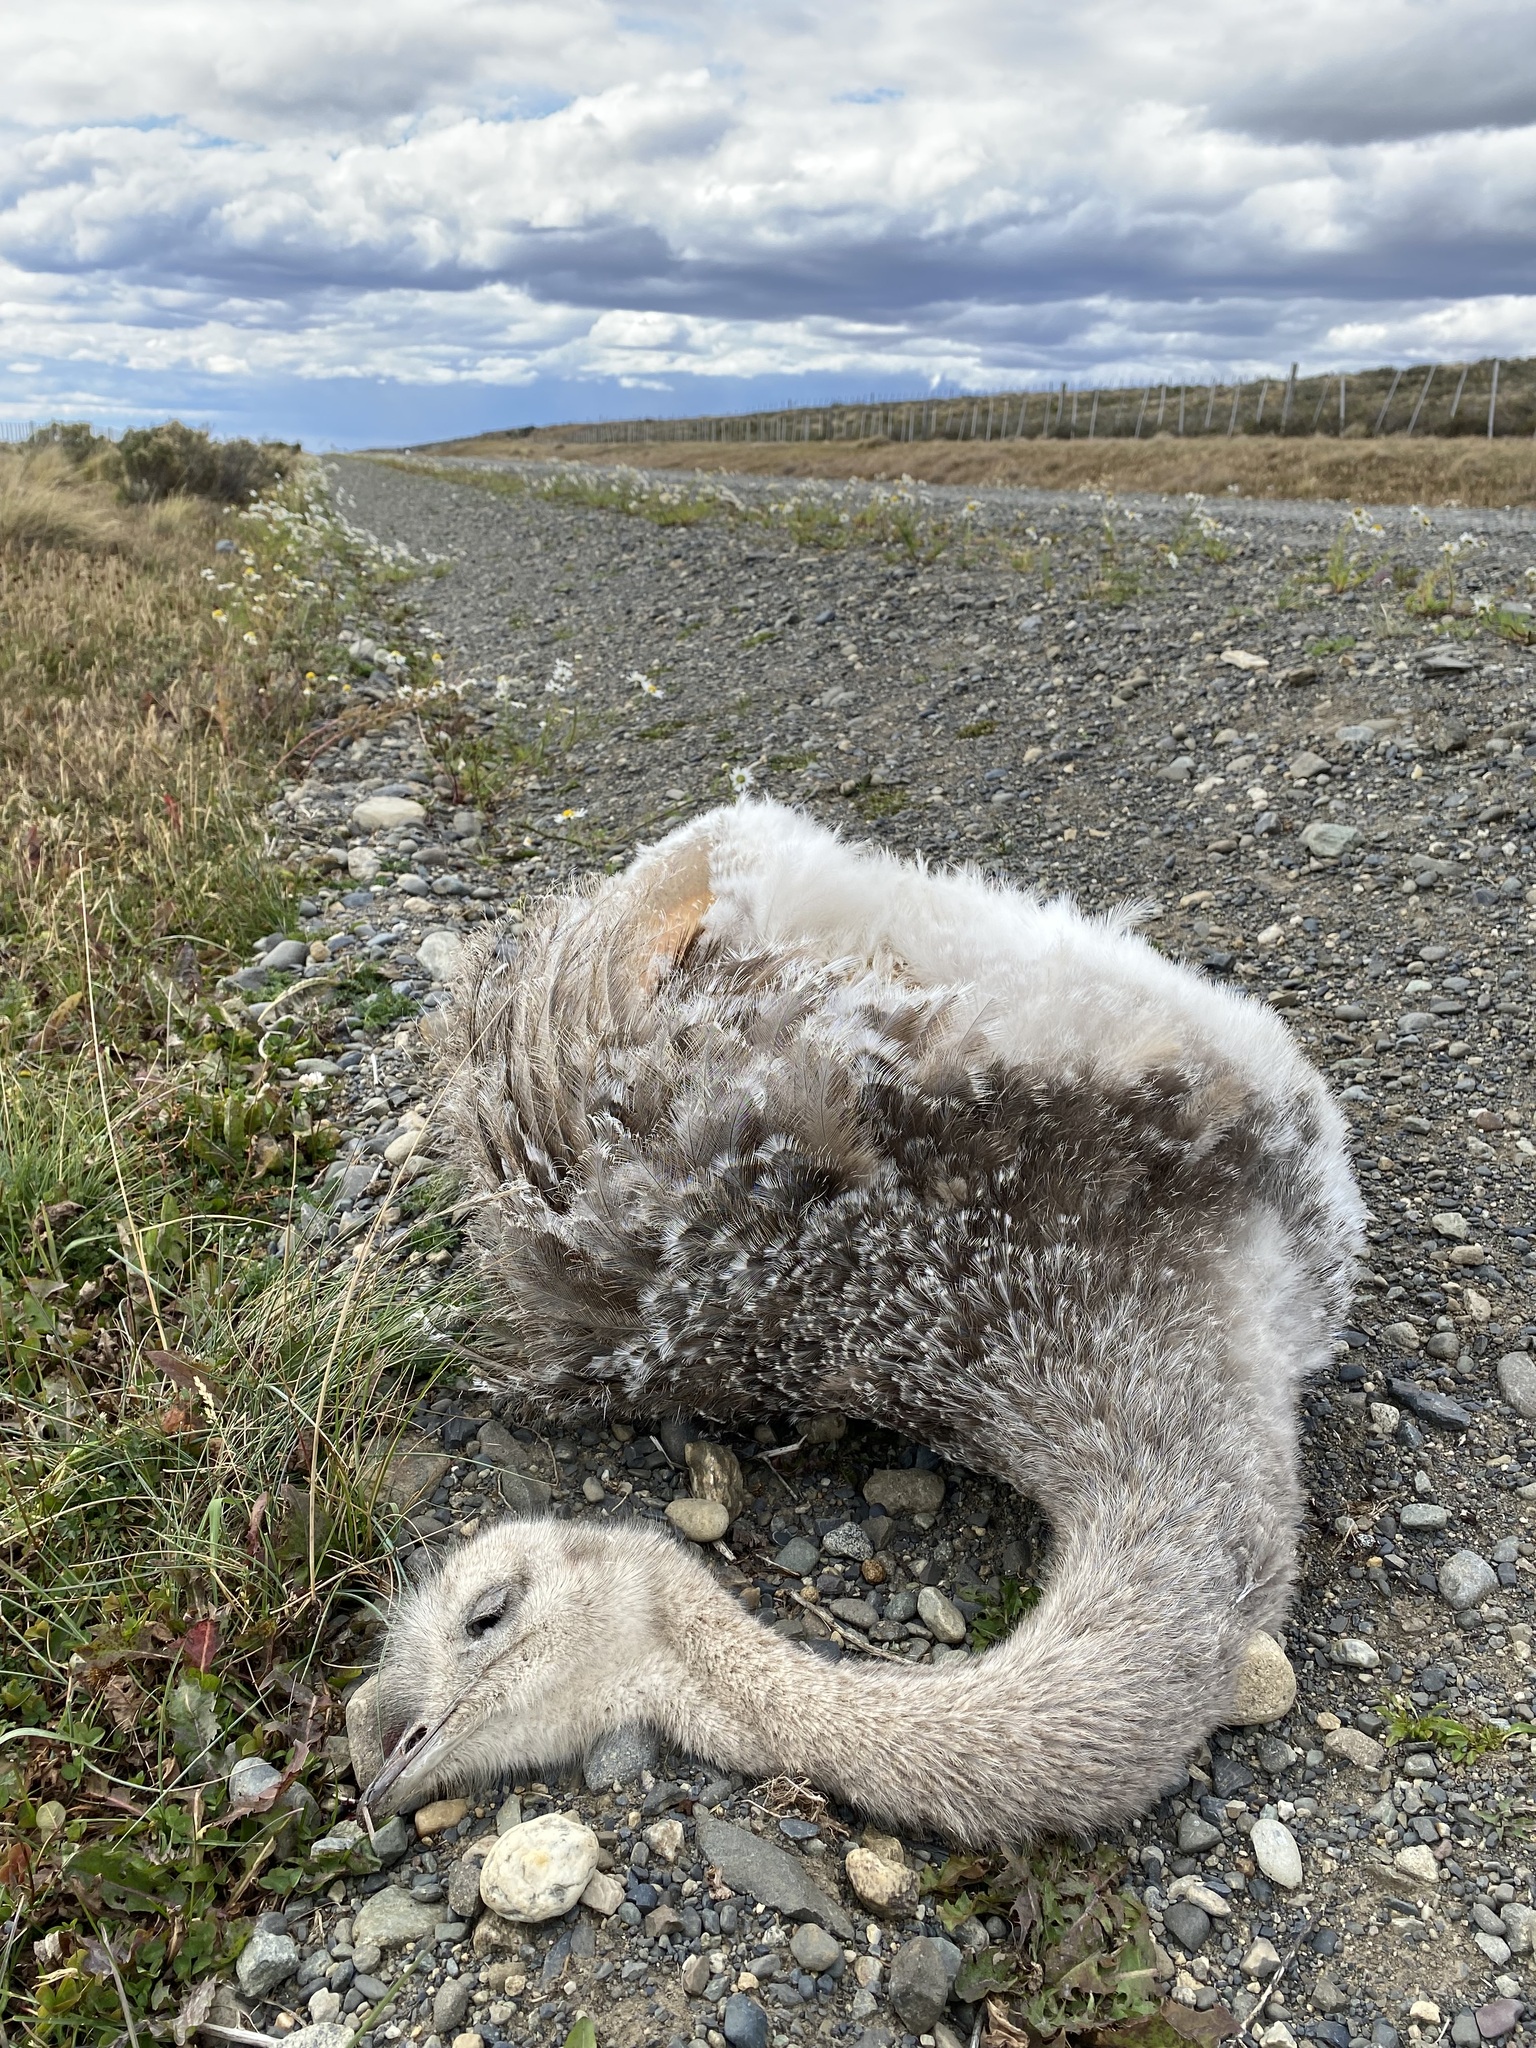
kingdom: Animalia
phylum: Chordata
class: Aves
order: Rheiformes
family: Rheidae
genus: Rhea
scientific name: Rhea pennata
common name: Lesser rhea
